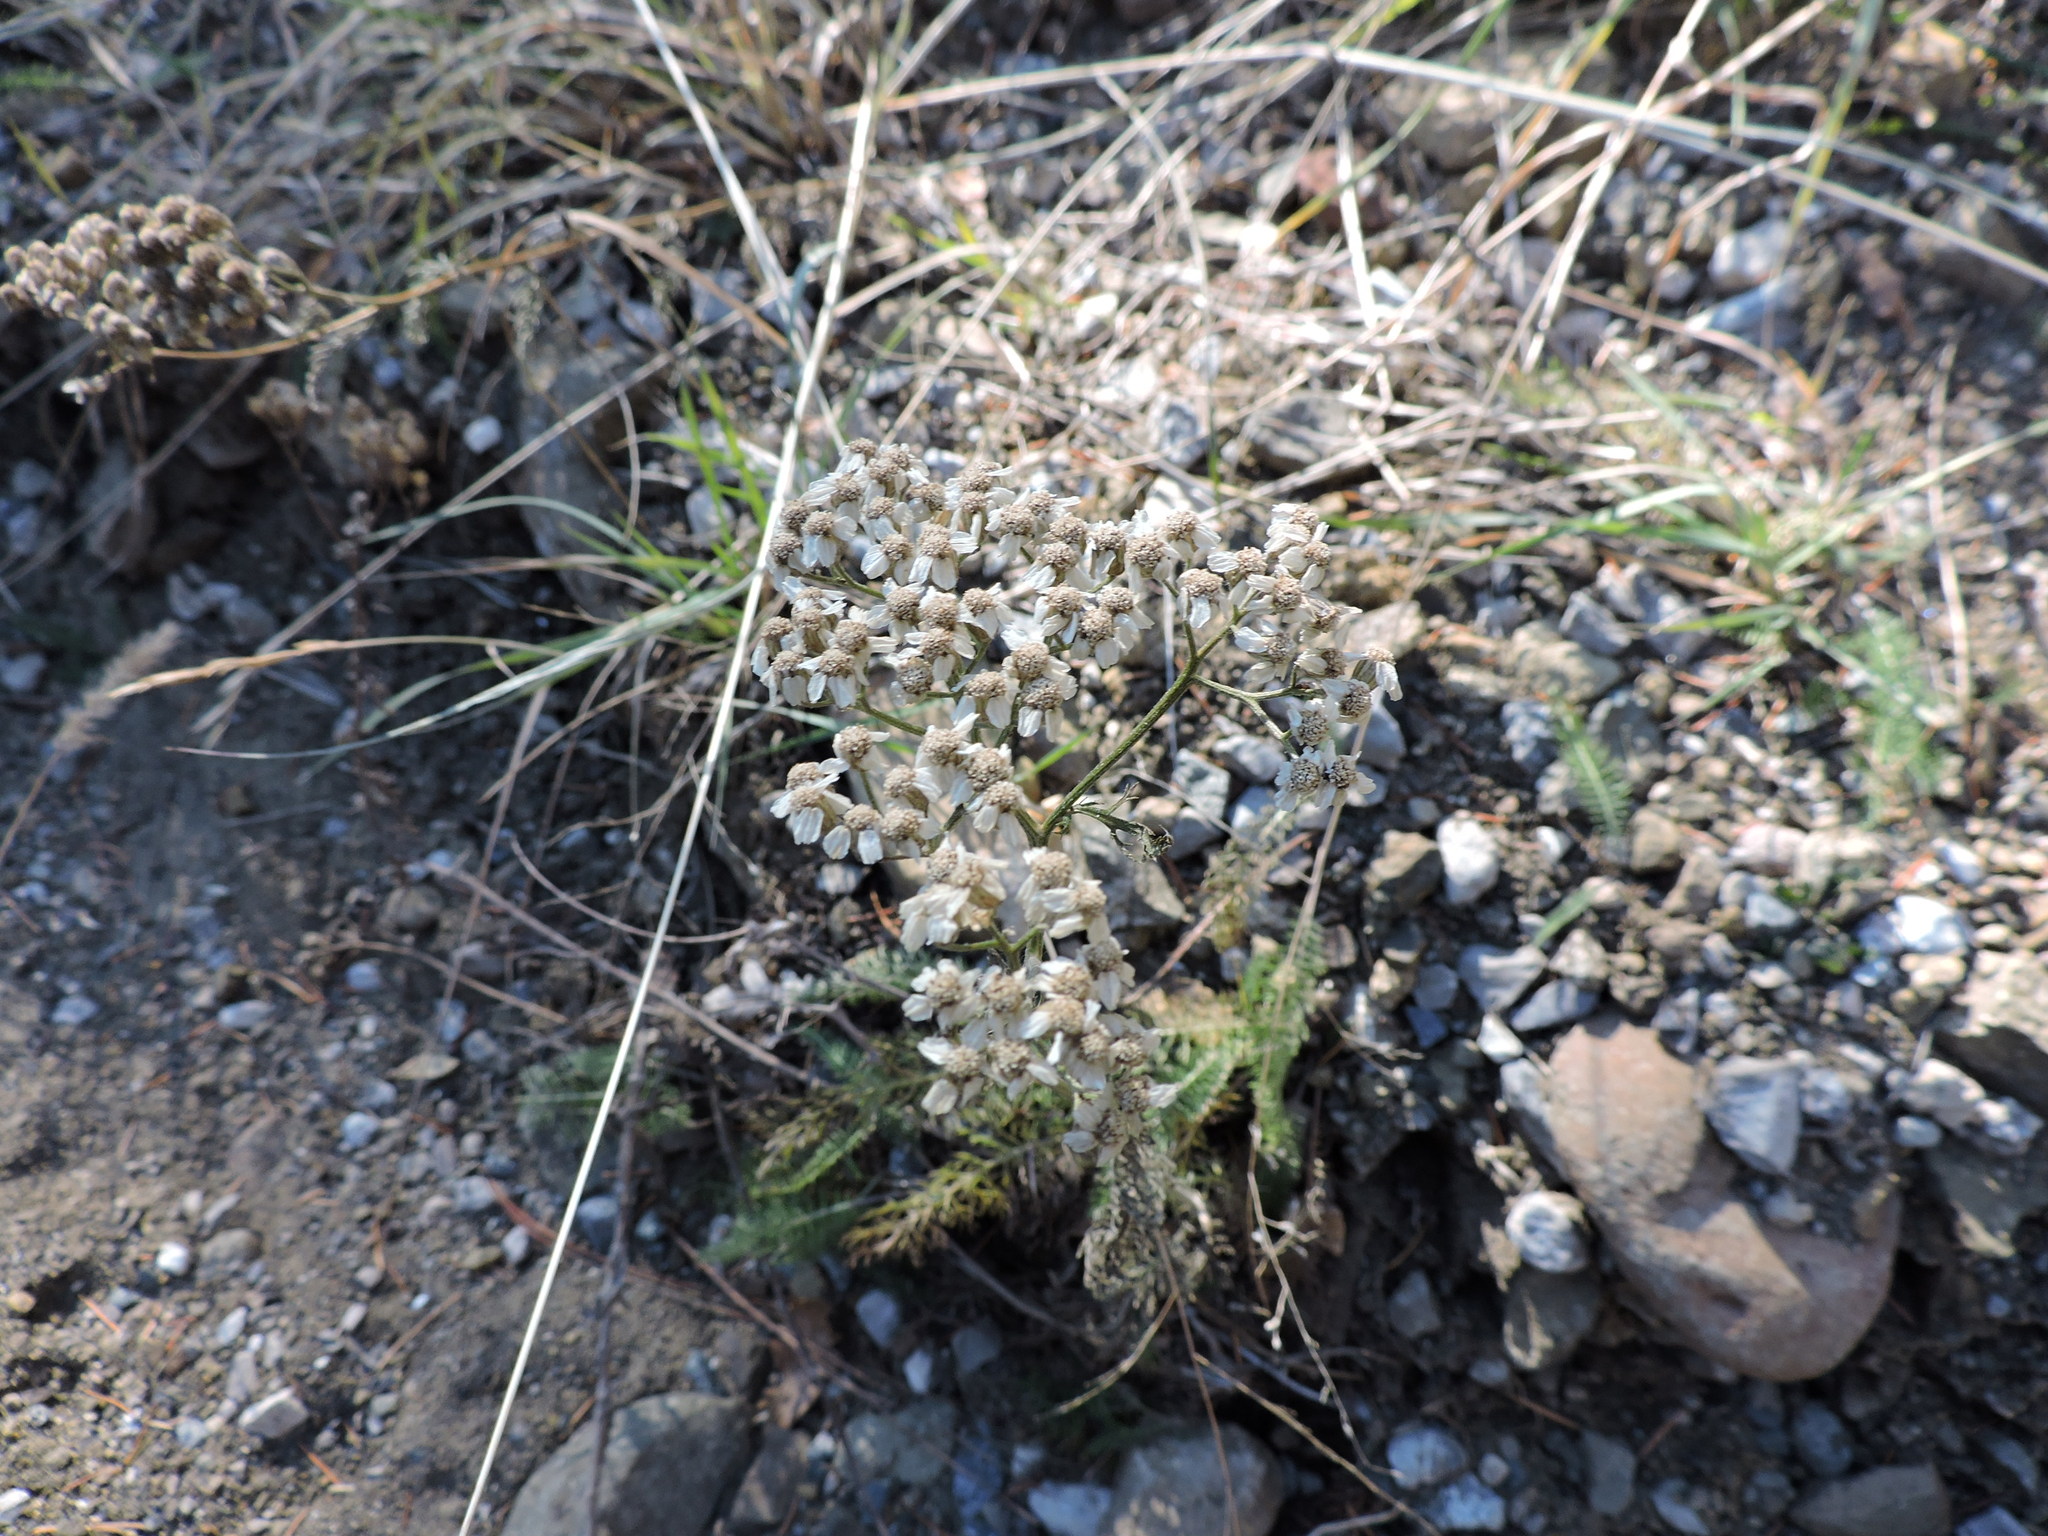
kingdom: Plantae
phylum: Tracheophyta
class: Magnoliopsida
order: Asterales
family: Asteraceae
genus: Achillea
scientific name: Achillea millefolium
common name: Yarrow
